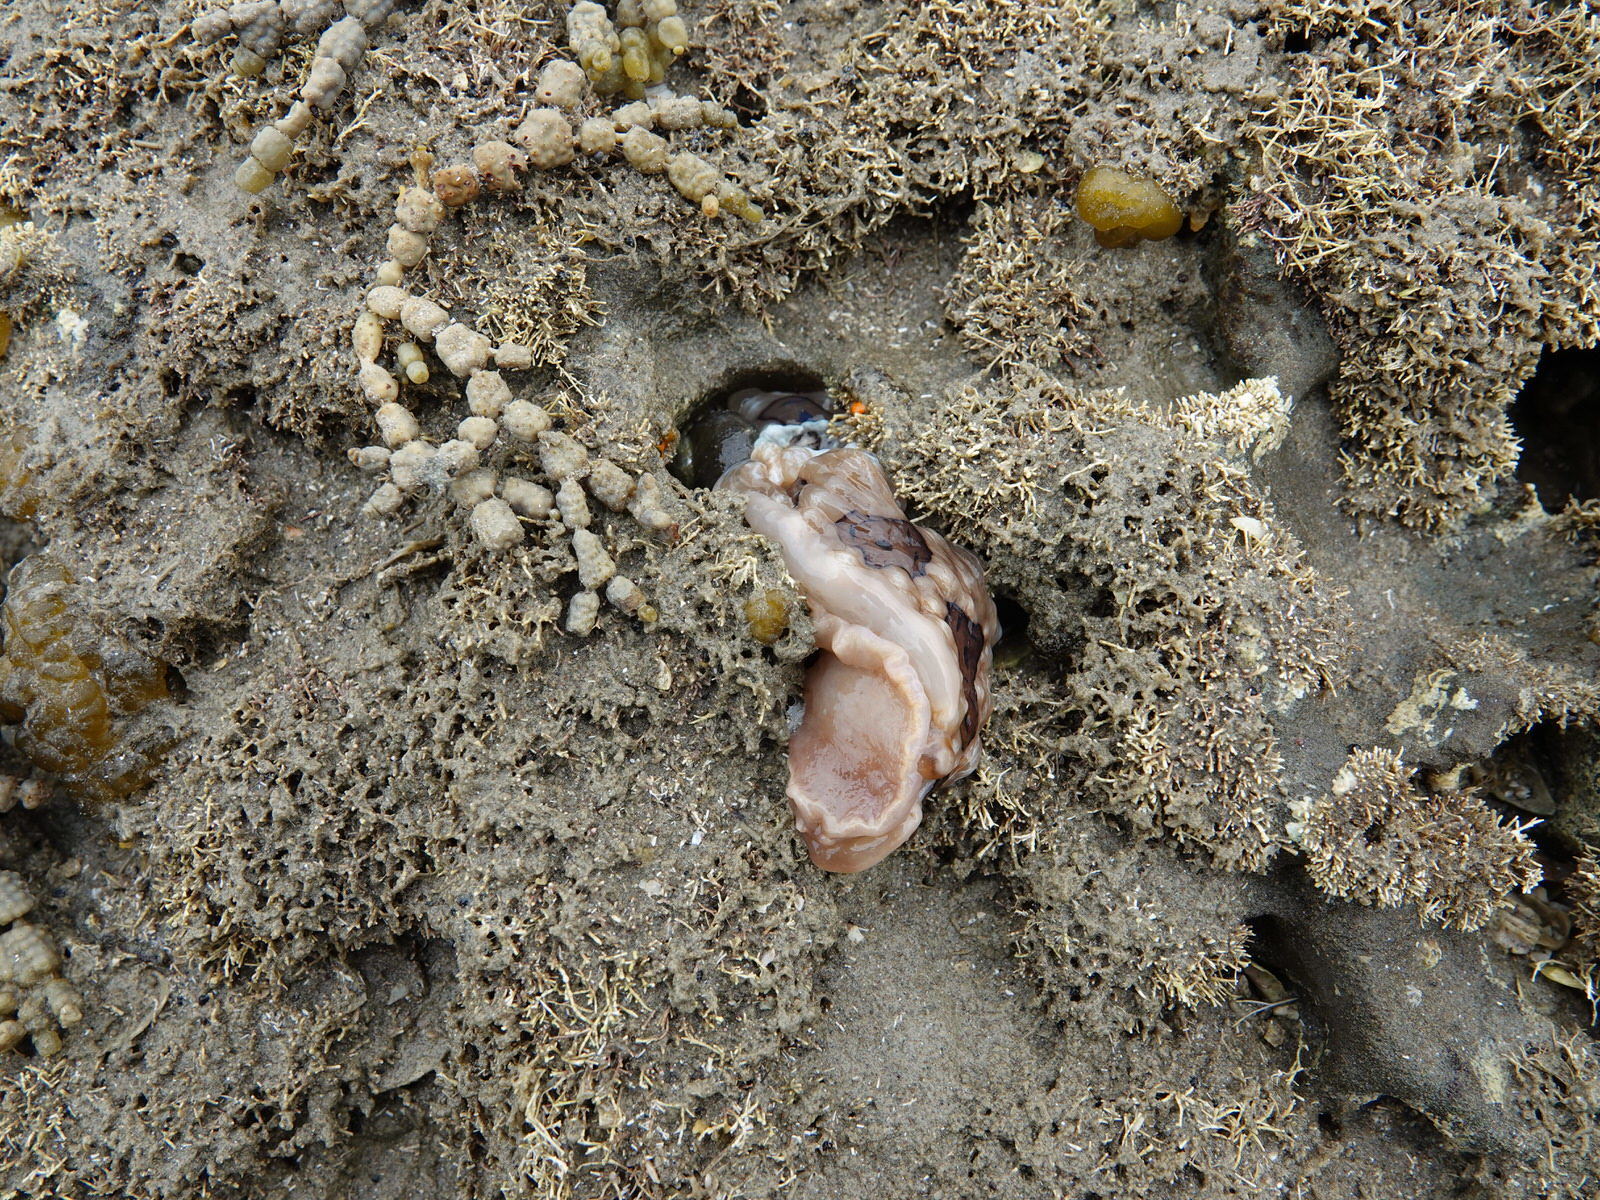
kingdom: Animalia
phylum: Mollusca
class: Gastropoda
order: Nudibranchia
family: Dendrodorididae
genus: Dendrodoris
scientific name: Dendrodoris krusensternii
